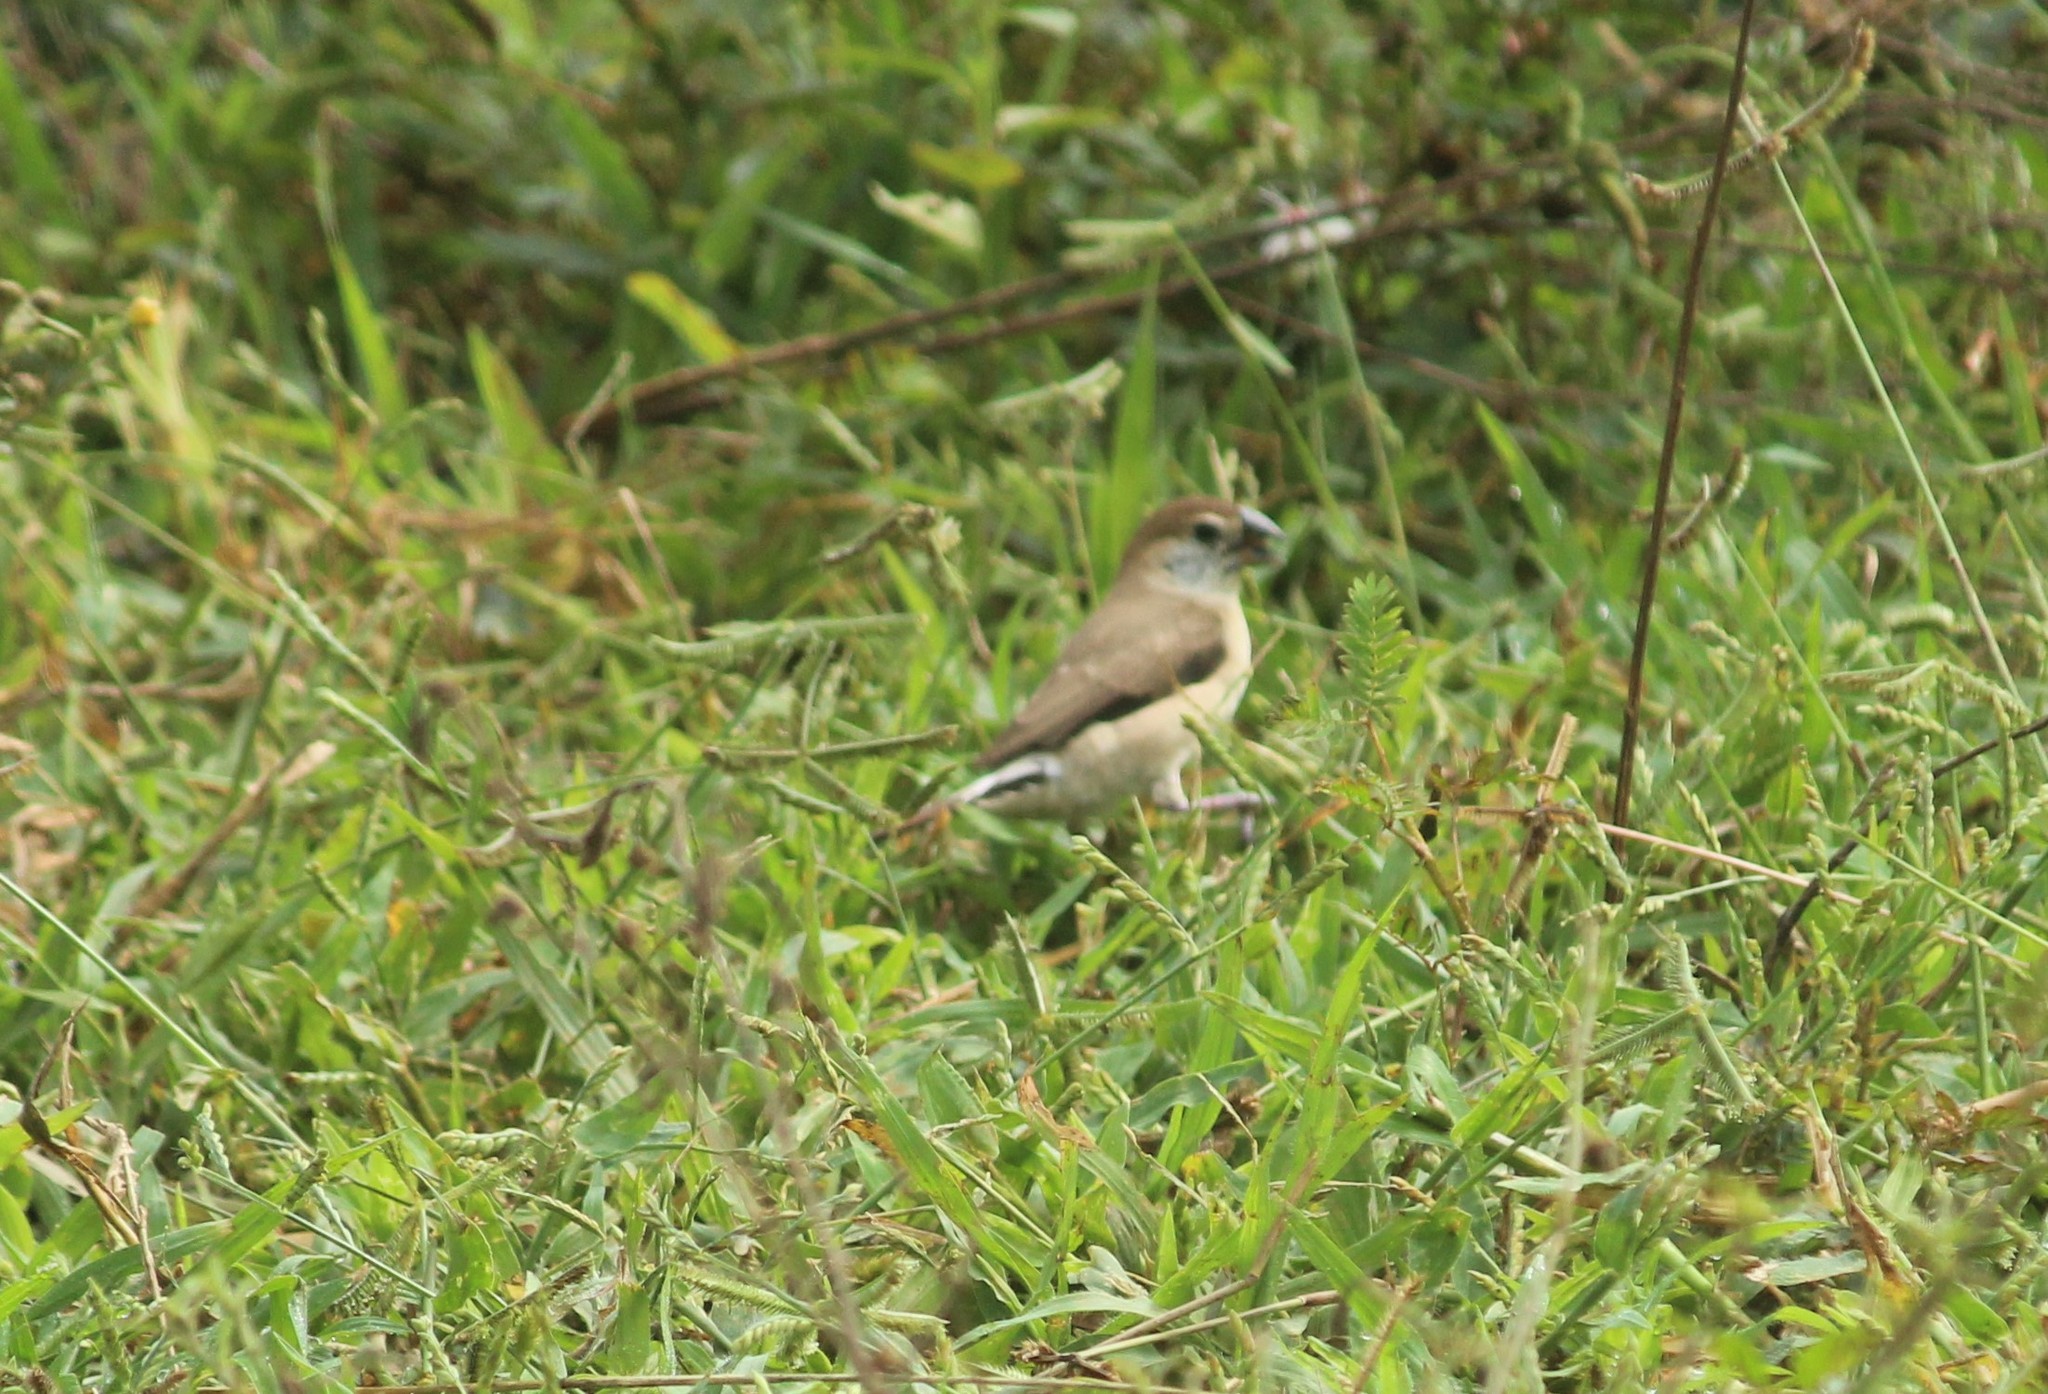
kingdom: Animalia
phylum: Chordata
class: Aves
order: Passeriformes
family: Estrildidae
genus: Euodice
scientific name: Euodice malabarica
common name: Indian silverbill
